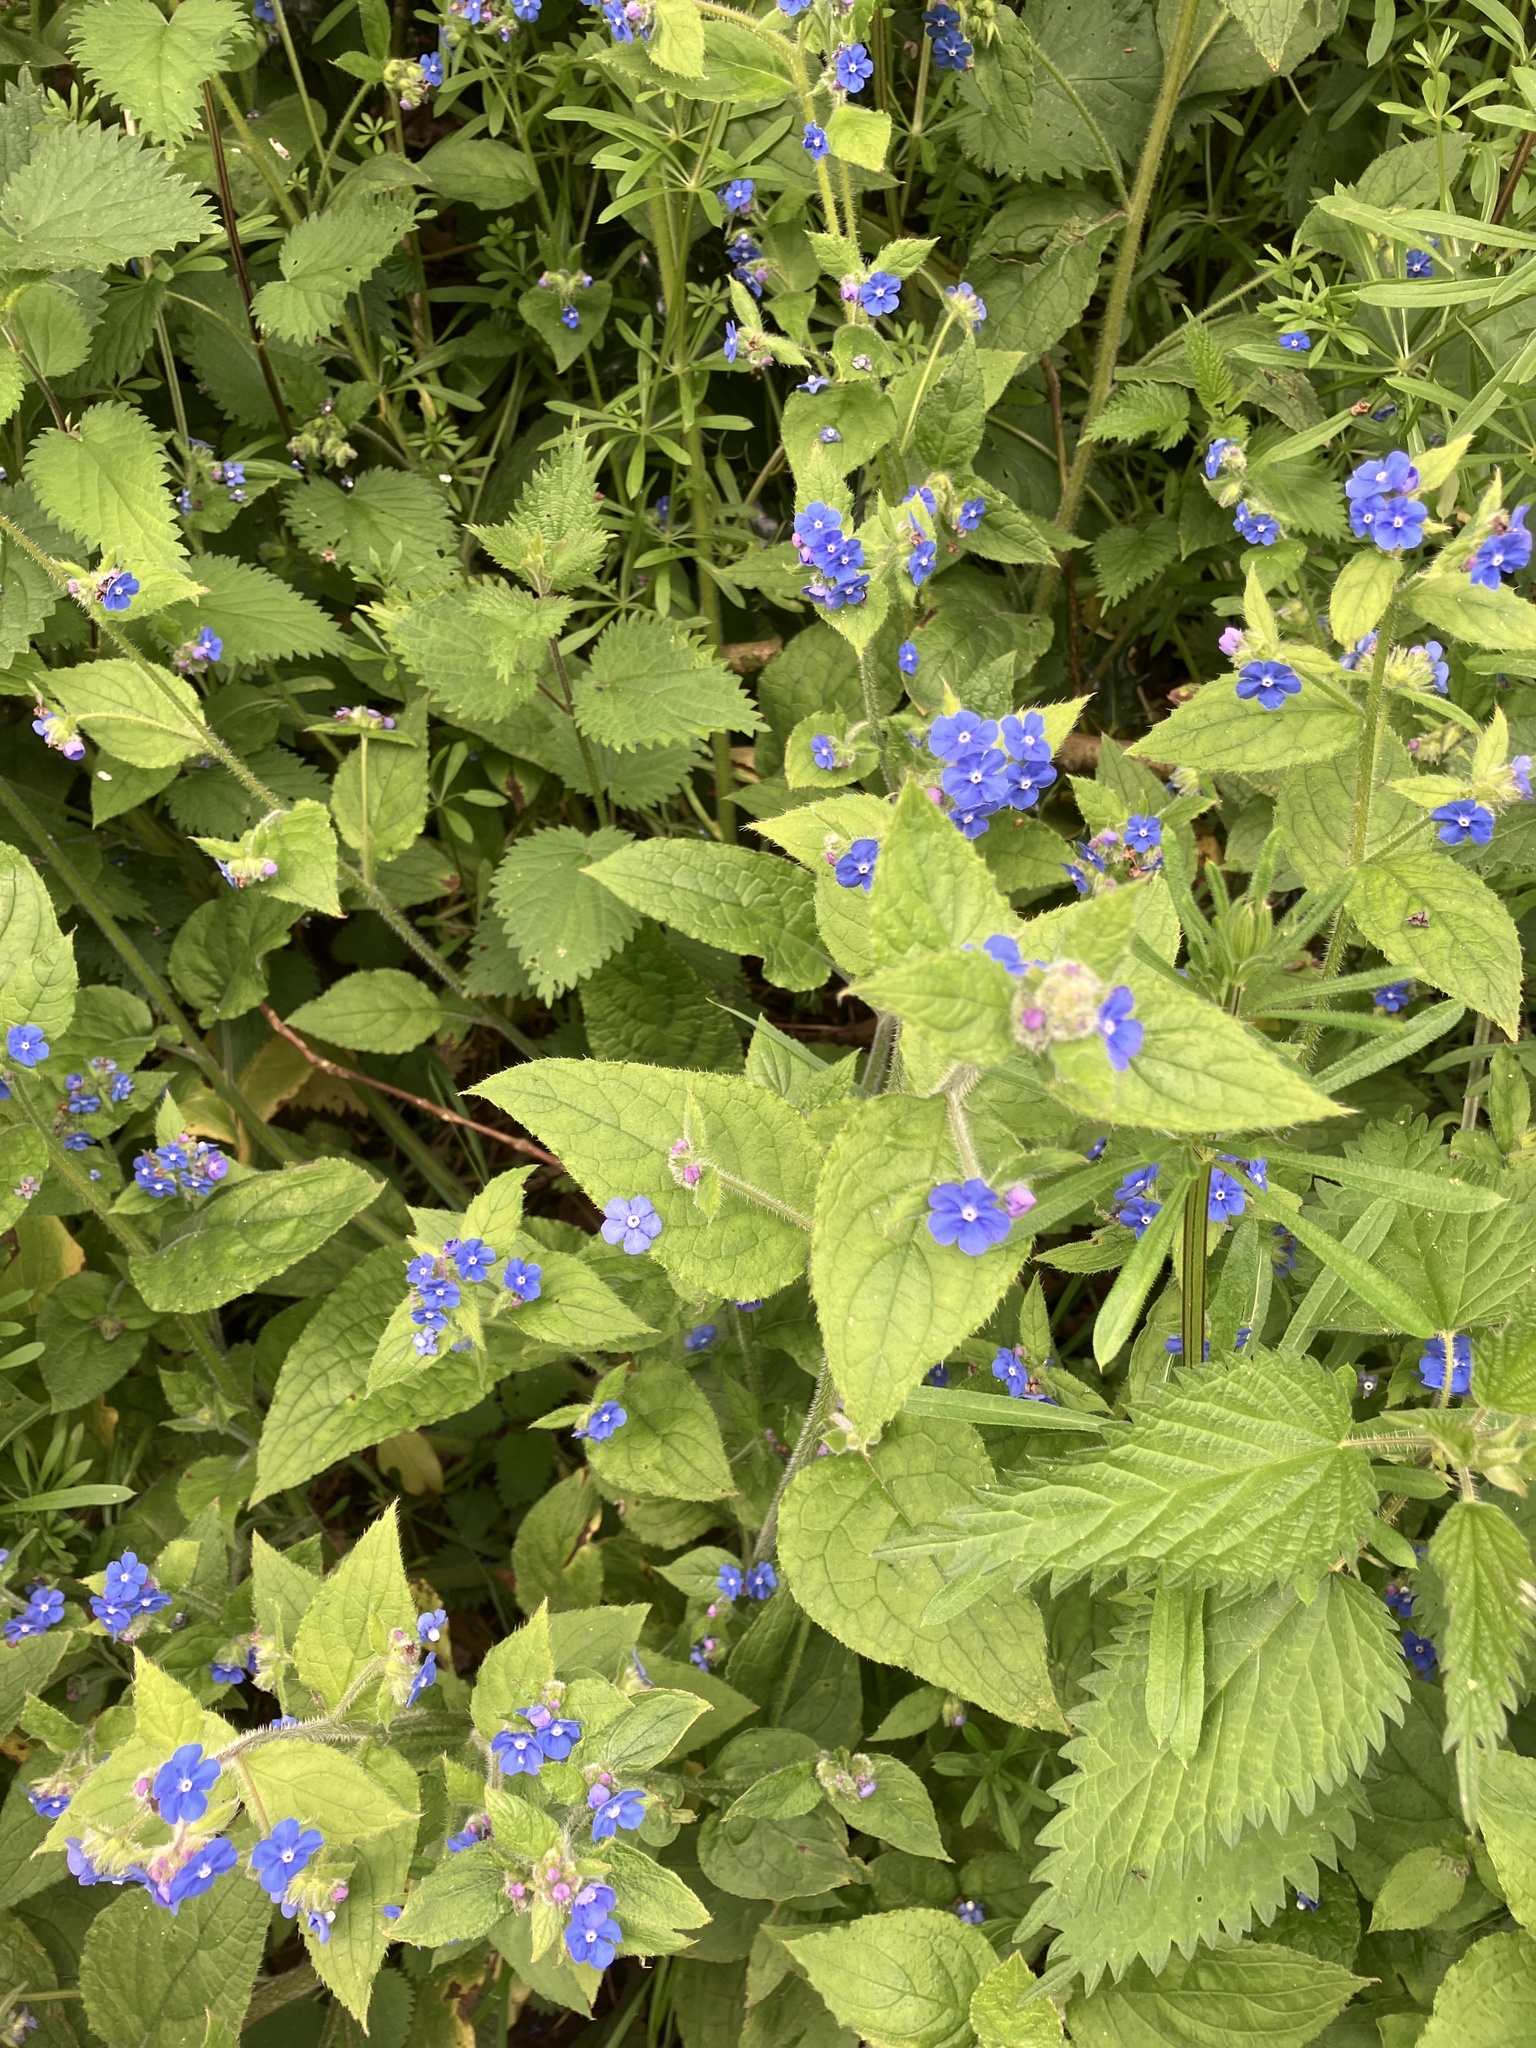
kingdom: Plantae
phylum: Tracheophyta
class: Magnoliopsida
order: Boraginales
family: Boraginaceae
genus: Pentaglottis
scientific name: Pentaglottis sempervirens
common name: Green alkanet
